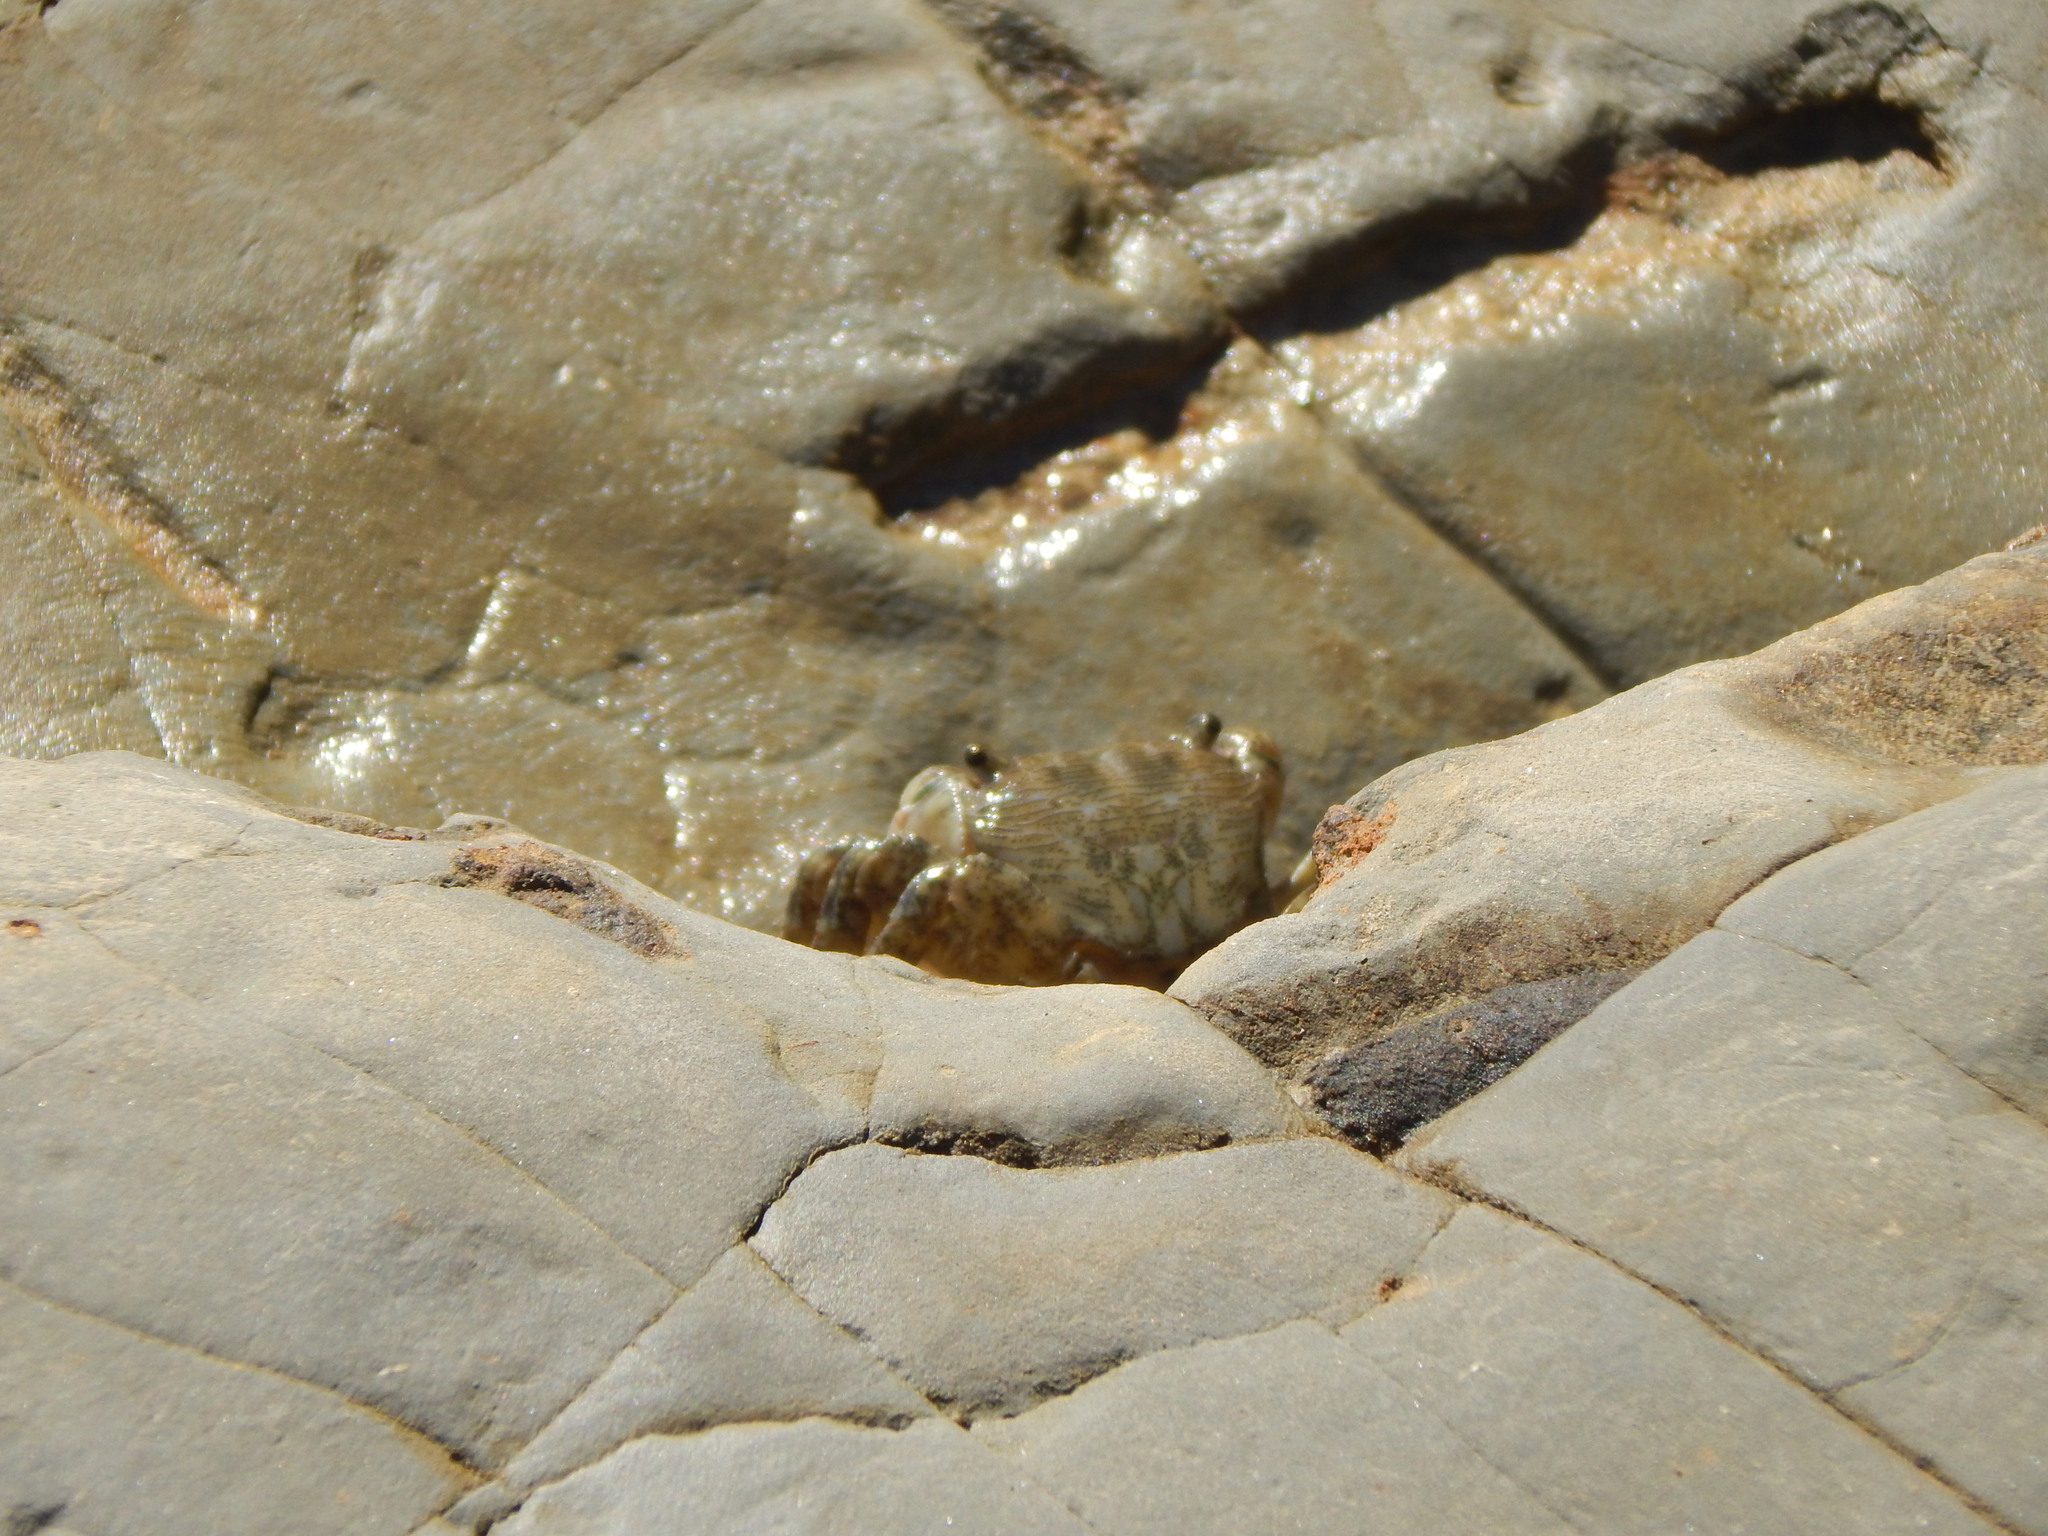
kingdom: Animalia
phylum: Arthropoda
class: Malacostraca
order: Decapoda
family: Grapsidae
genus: Pachygrapsus
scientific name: Pachygrapsus crassipes
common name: Striped shore crab
